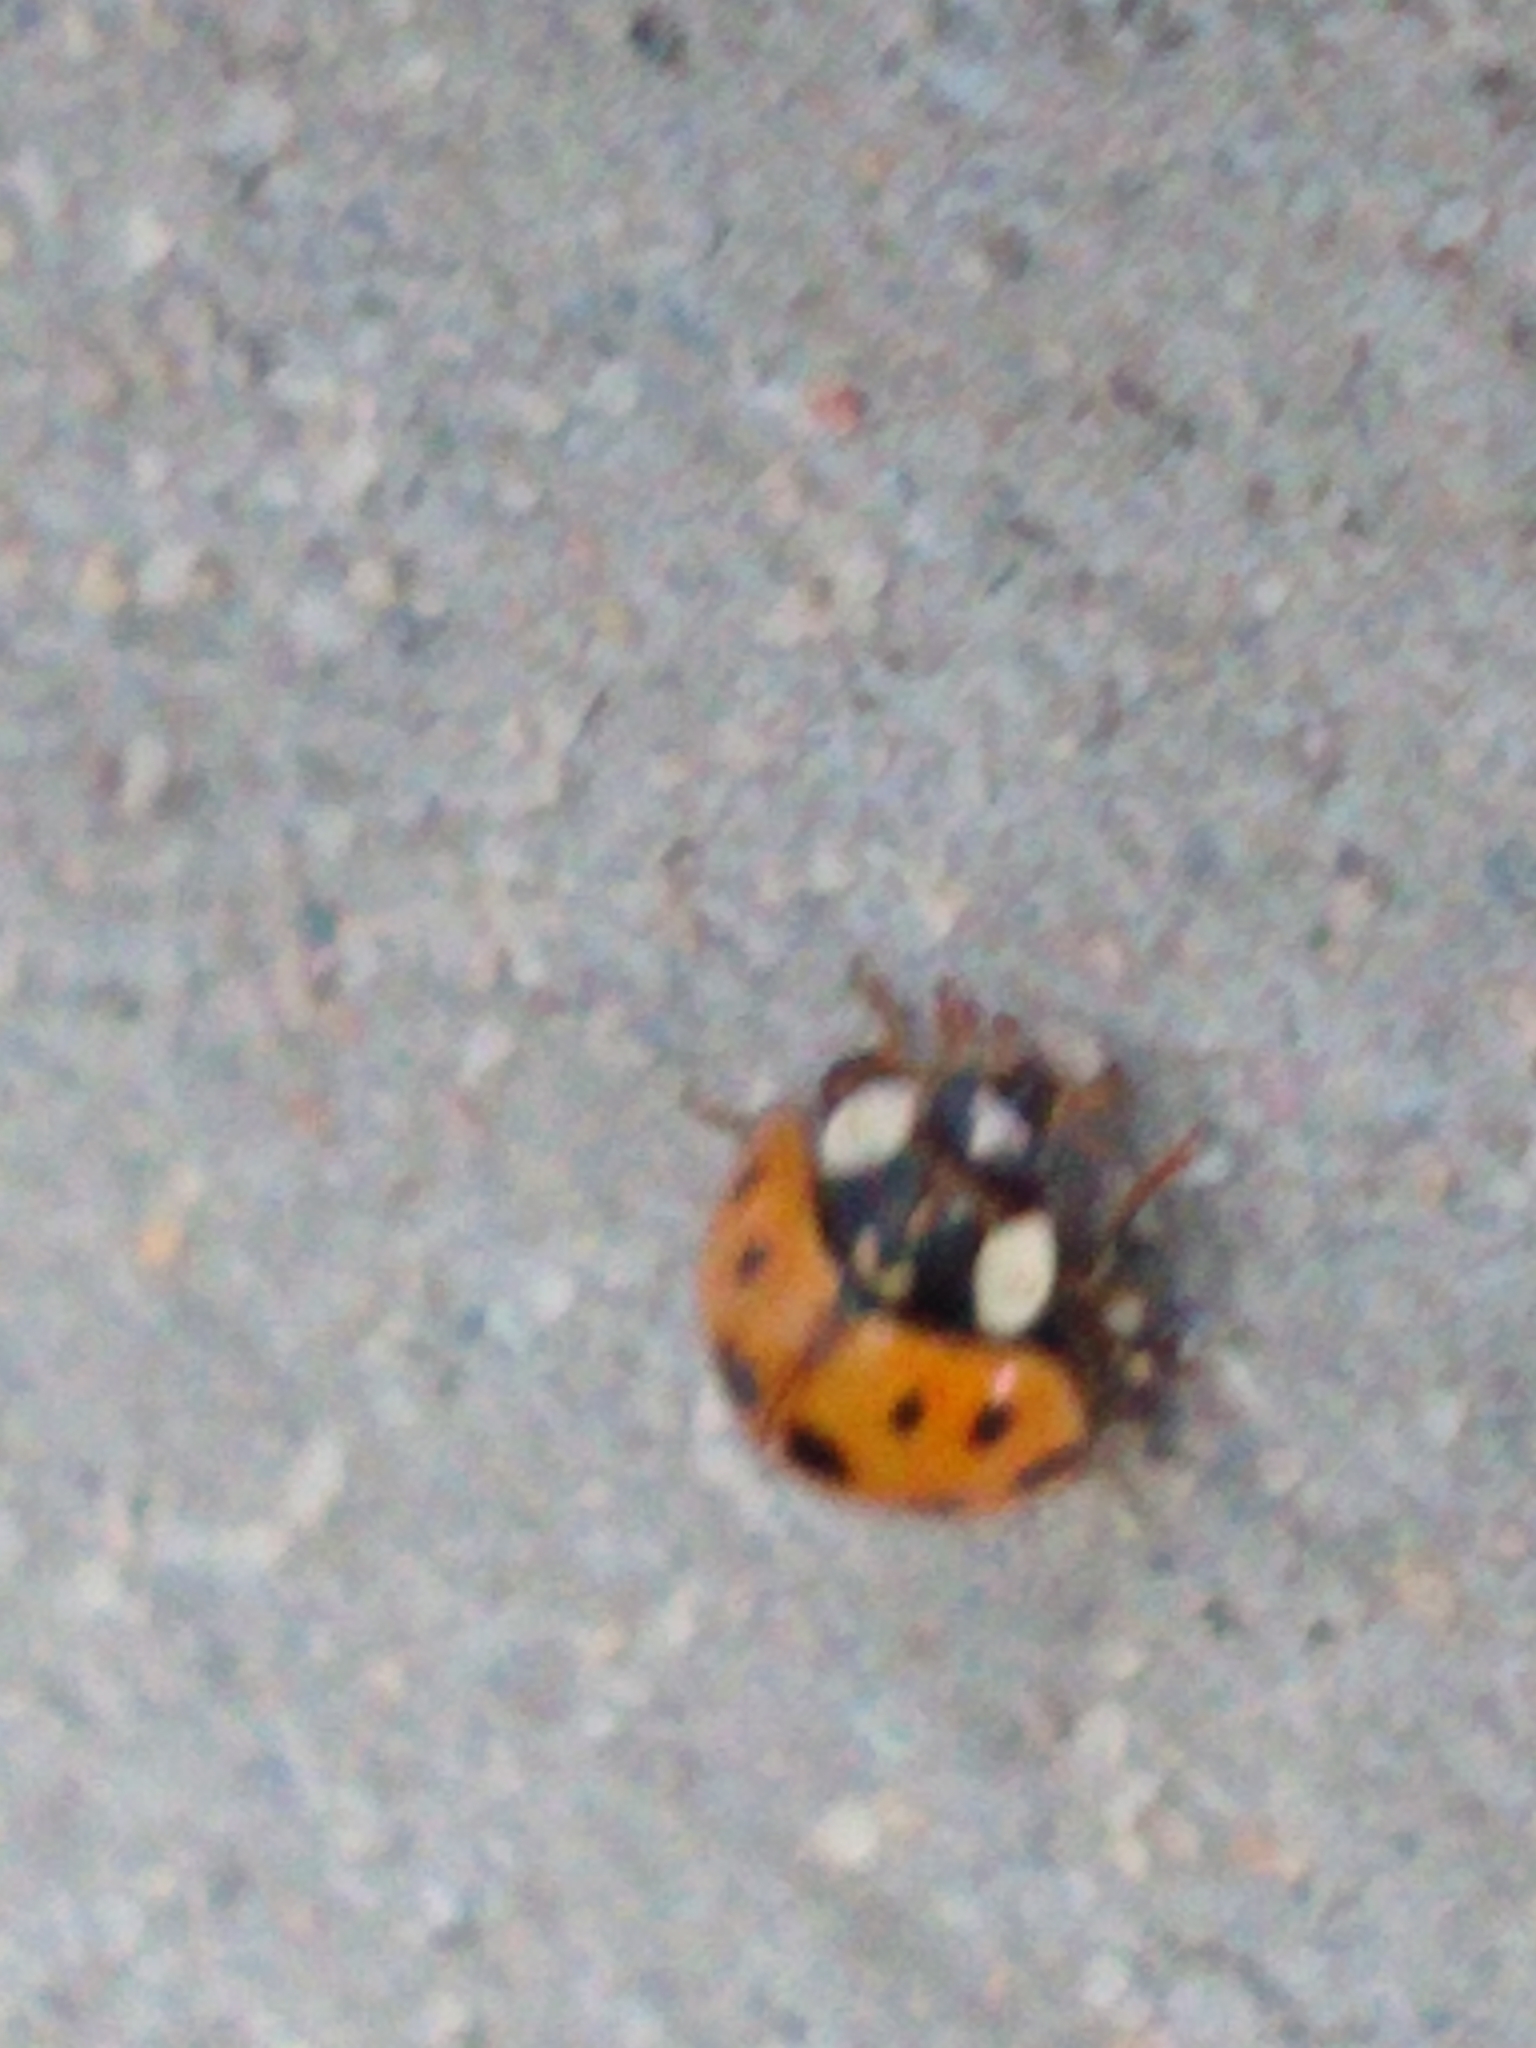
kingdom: Animalia
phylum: Arthropoda
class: Insecta
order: Coleoptera
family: Coccinellidae
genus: Harmonia
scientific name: Harmonia axyridis
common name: Harlequin ladybird
